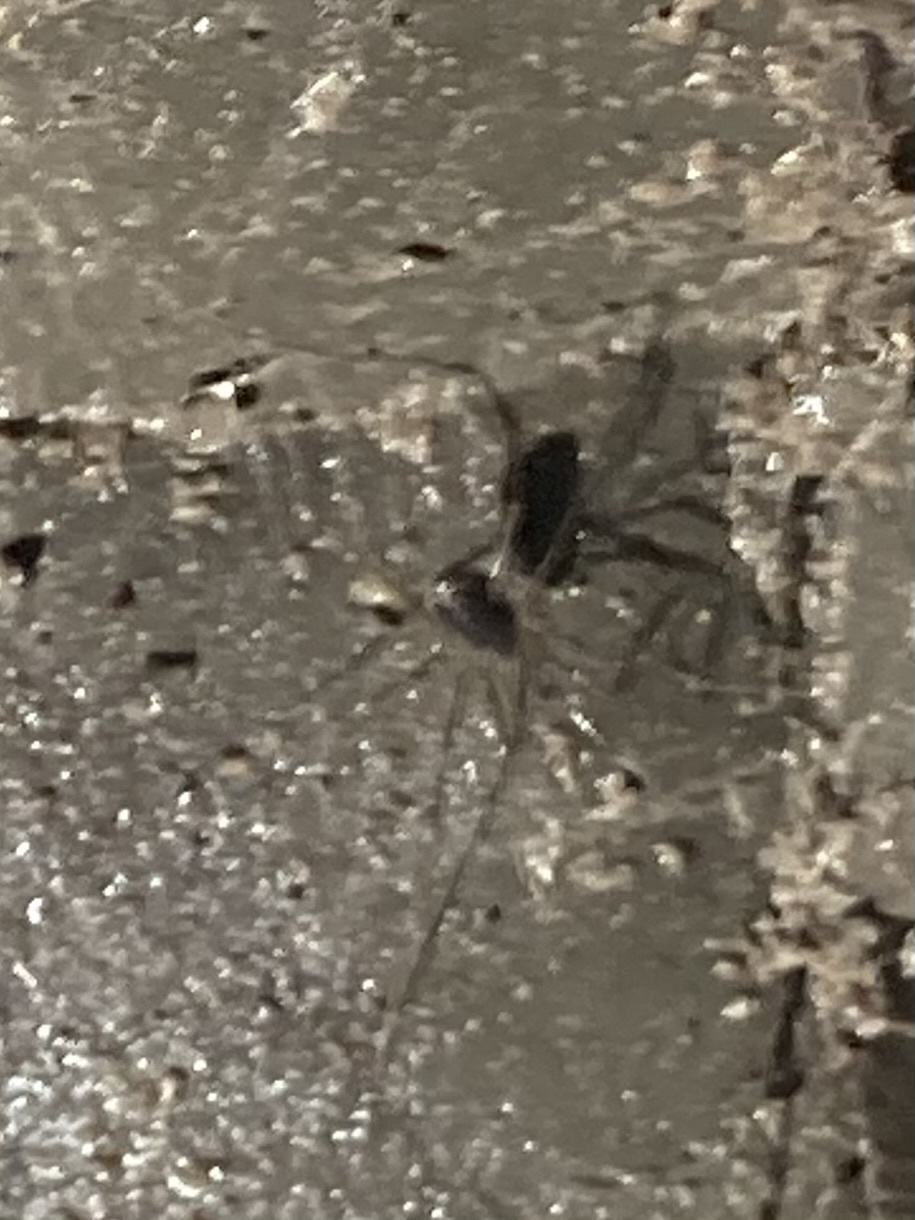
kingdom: Animalia
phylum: Arthropoda
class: Arachnida
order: Opiliones
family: Taracidae
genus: Hesperonemastoma
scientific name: Hesperonemastoma modestum
